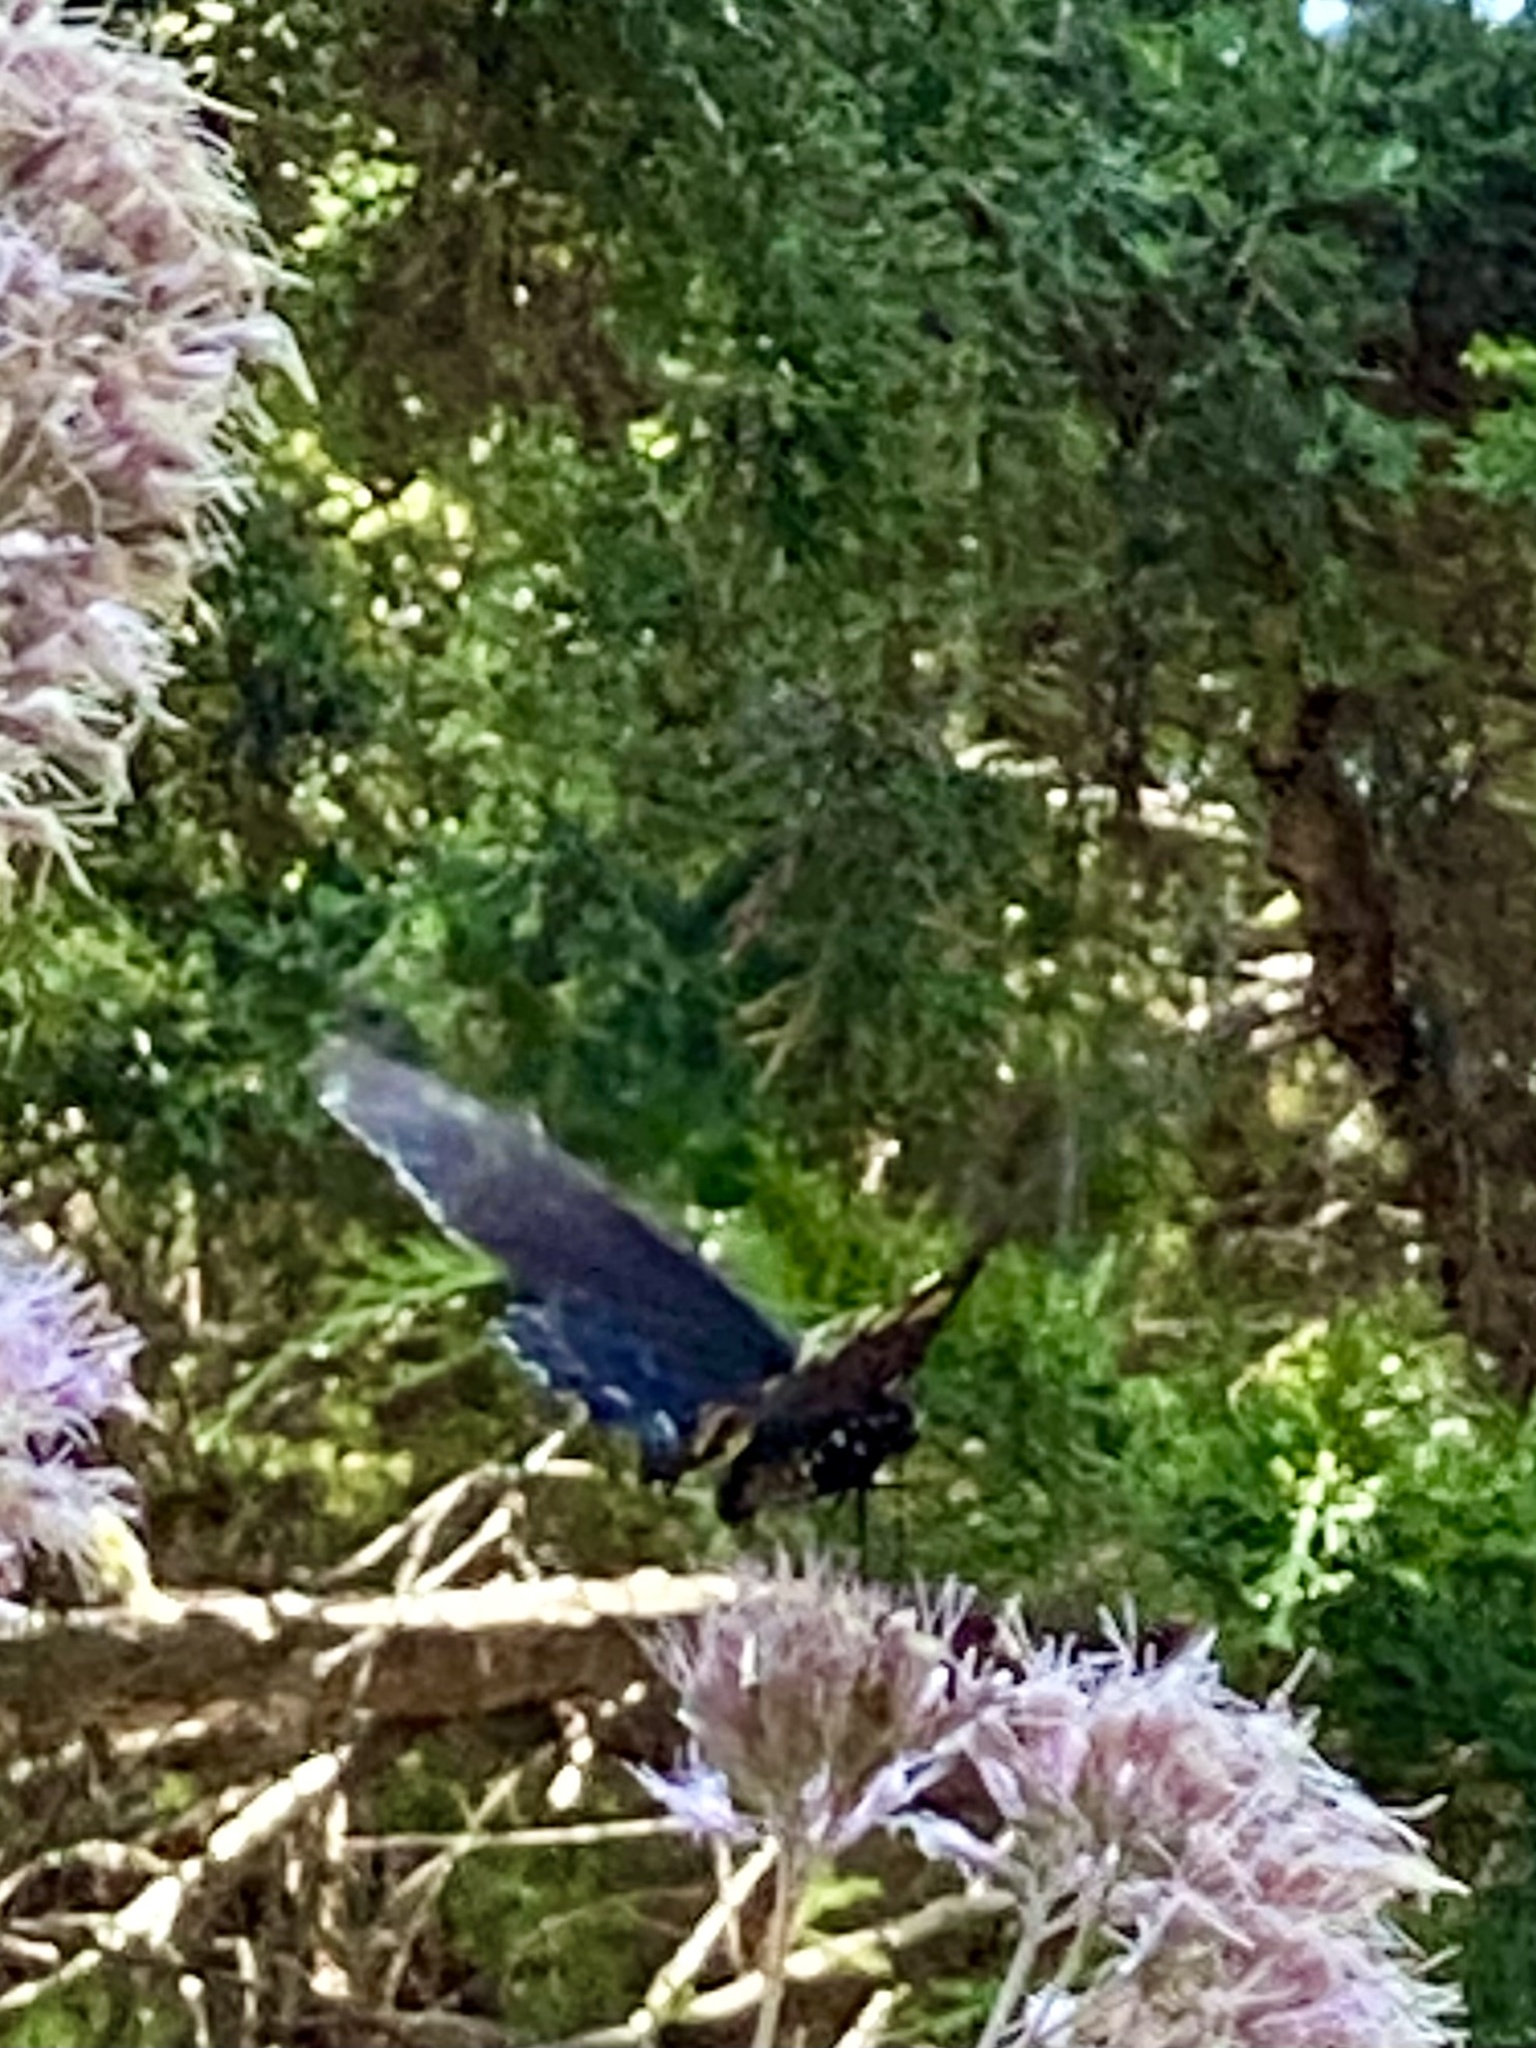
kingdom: Animalia
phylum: Arthropoda
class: Insecta
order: Lepidoptera
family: Papilionidae
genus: Battus
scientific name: Battus philenor
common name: Pipevine swallowtail
